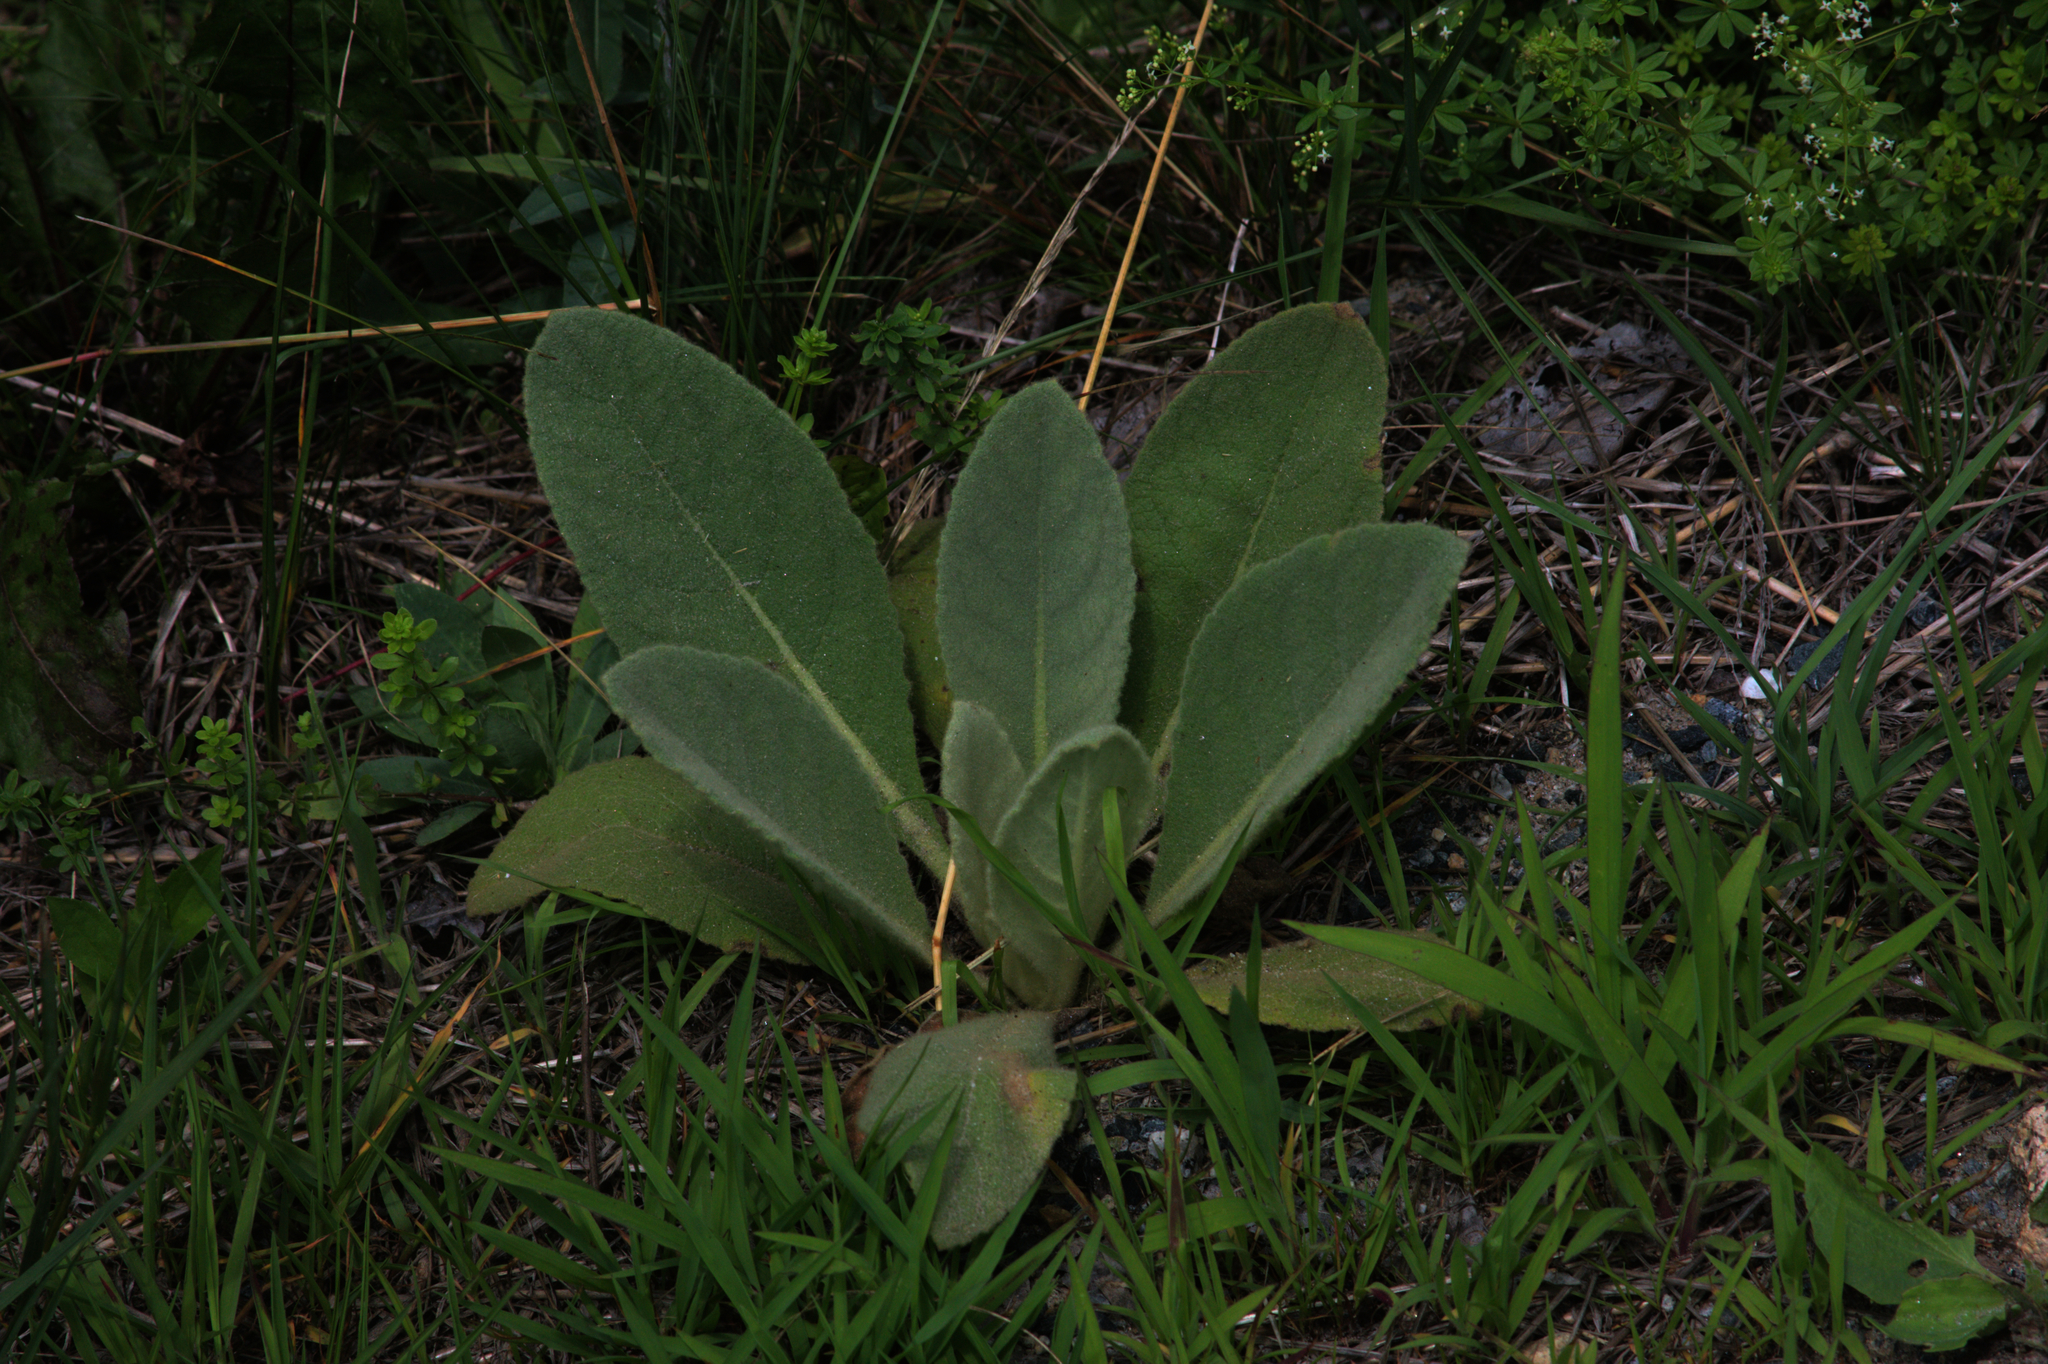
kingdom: Plantae
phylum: Tracheophyta
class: Magnoliopsida
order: Lamiales
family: Scrophulariaceae
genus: Verbascum
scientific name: Verbascum thapsus
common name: Common mullein
